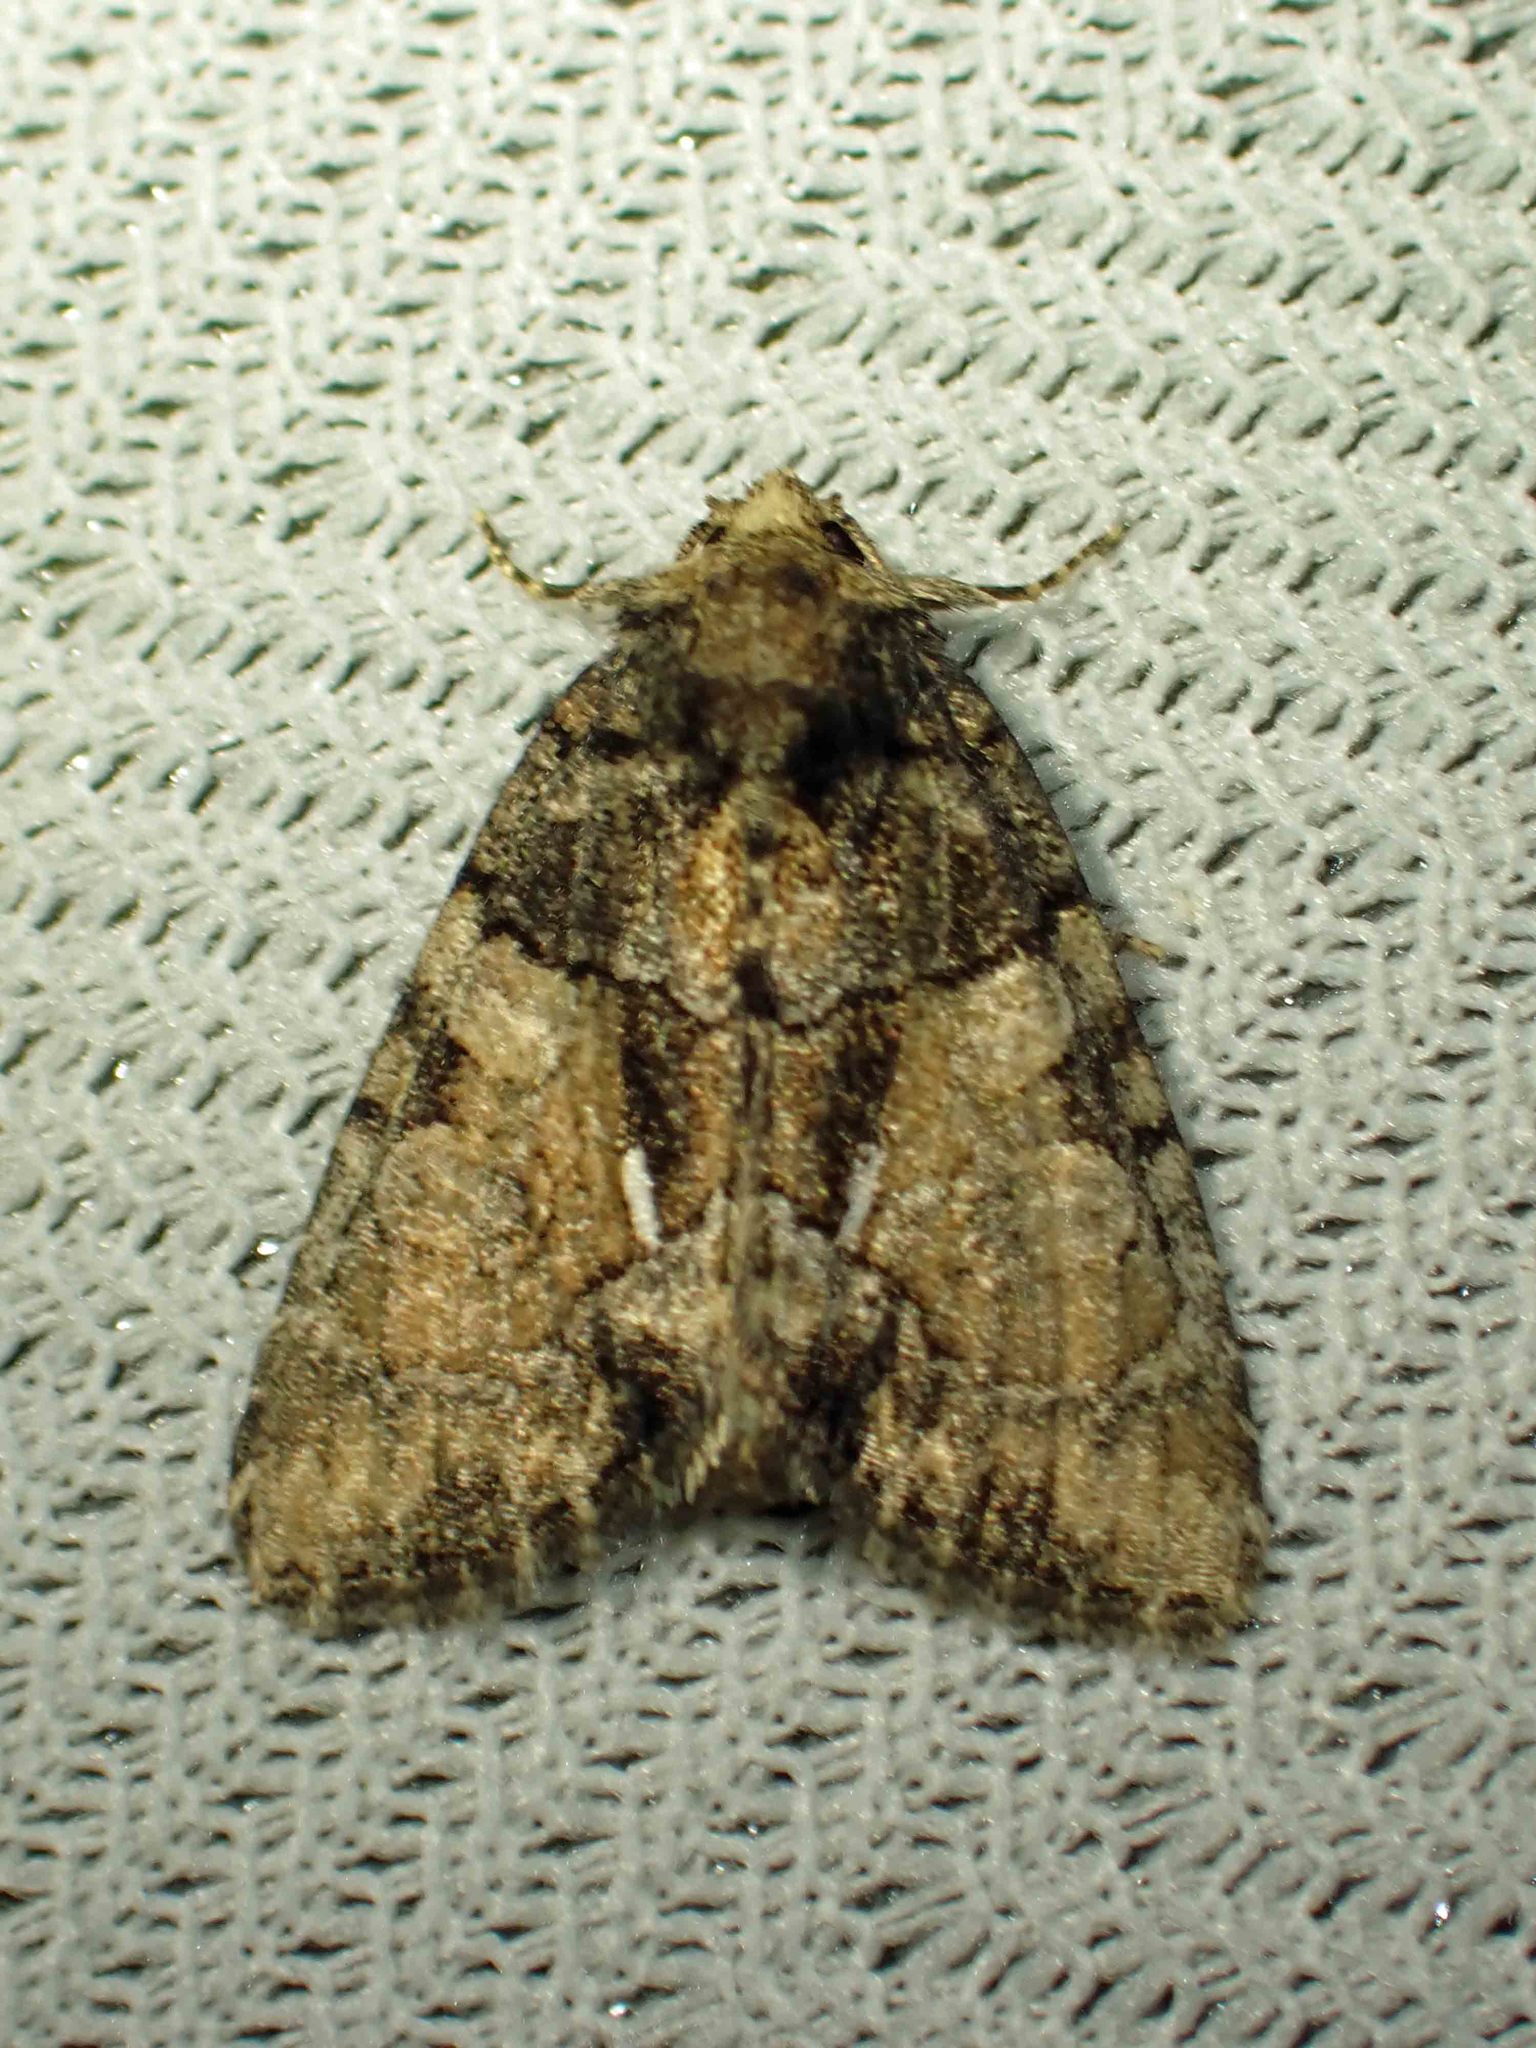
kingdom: Animalia
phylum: Arthropoda
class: Insecta
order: Lepidoptera
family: Noctuidae
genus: Chytonix
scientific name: Chytonix palliatricula
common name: Cloaked marvel
